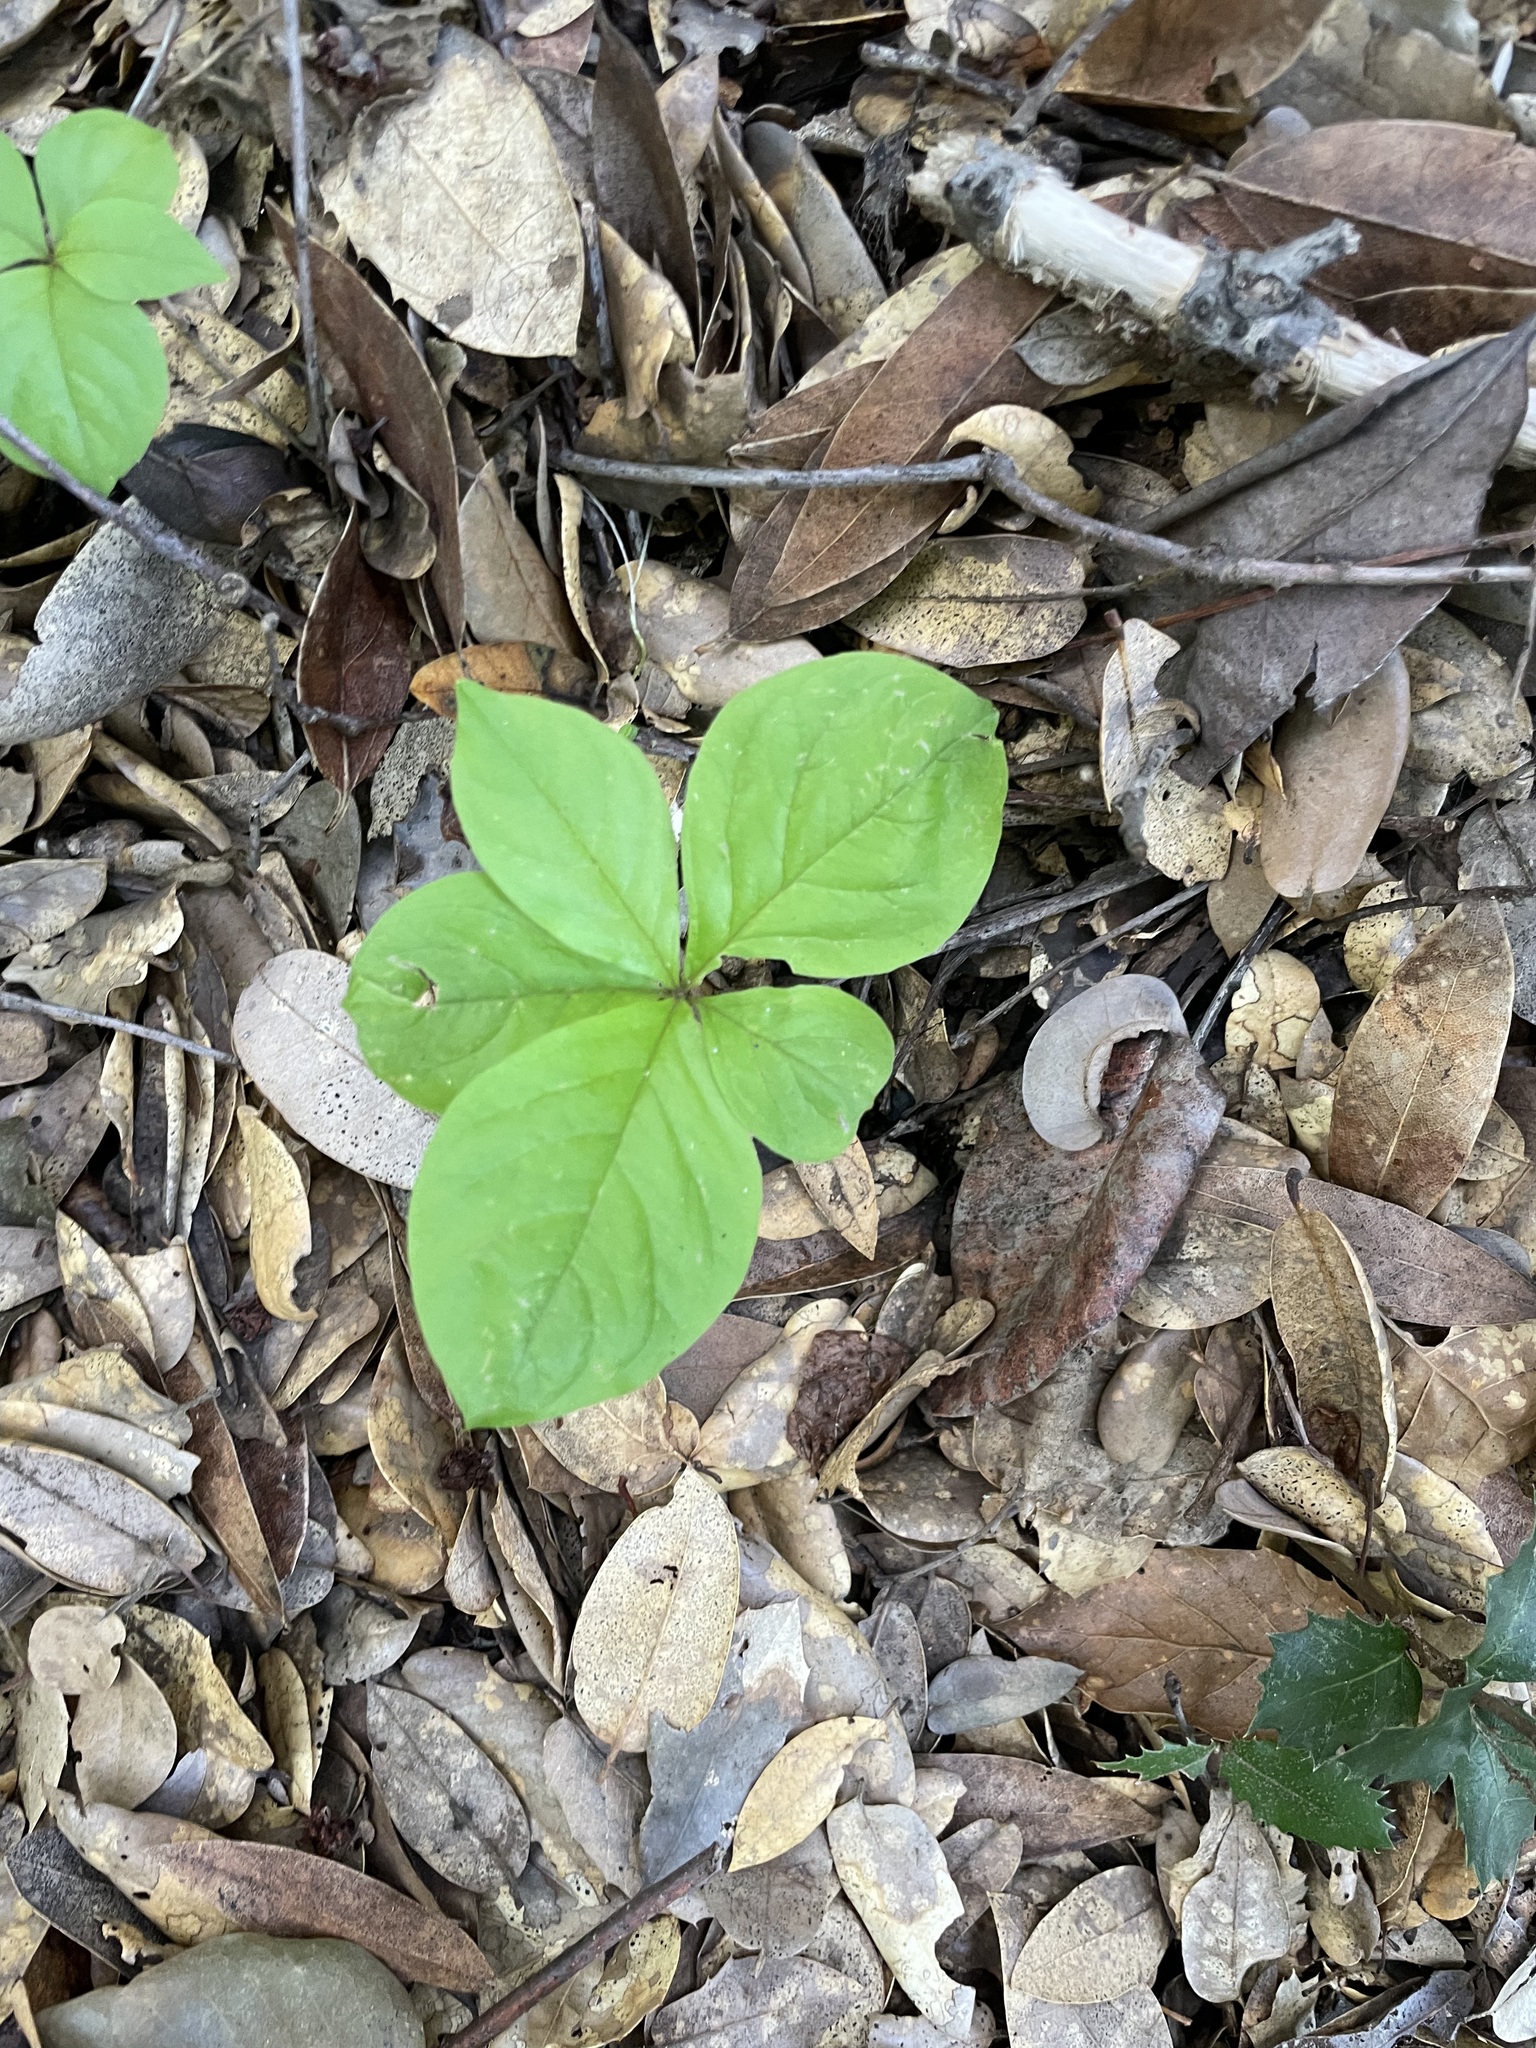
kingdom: Plantae
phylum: Tracheophyta
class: Magnoliopsida
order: Ericales
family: Primulaceae
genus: Lysimachia
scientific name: Lysimachia latifolia
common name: Pacific starflower
